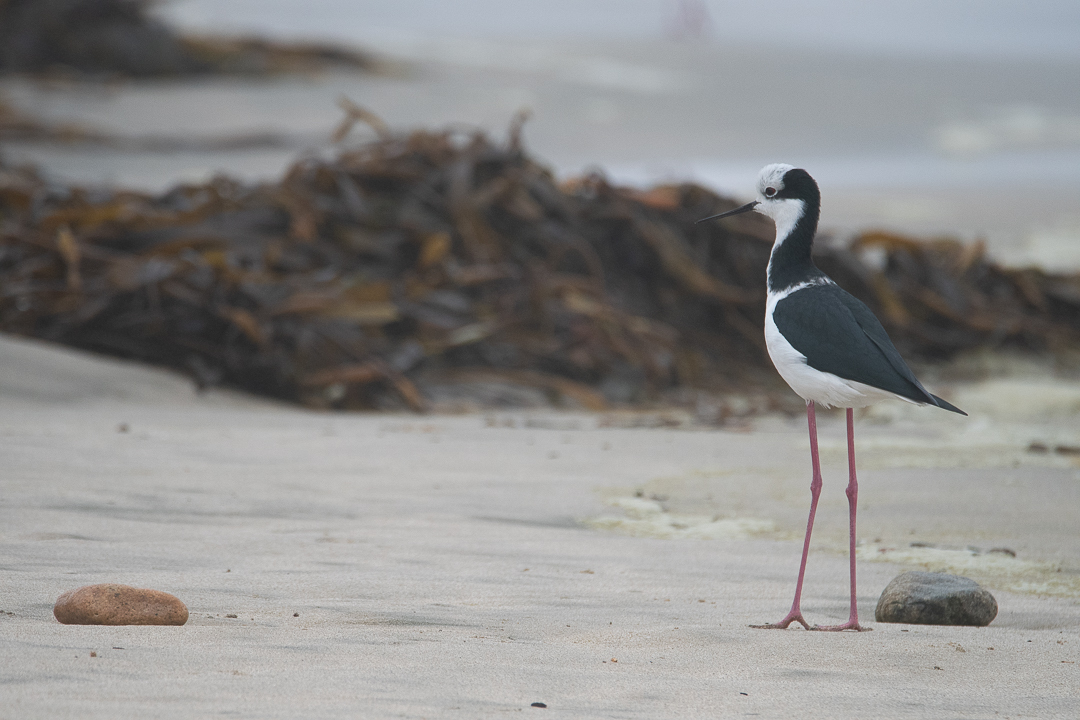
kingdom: Animalia
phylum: Chordata
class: Aves
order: Charadriiformes
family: Recurvirostridae
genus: Himantopus
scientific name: Himantopus mexicanus
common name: Black-necked stilt
